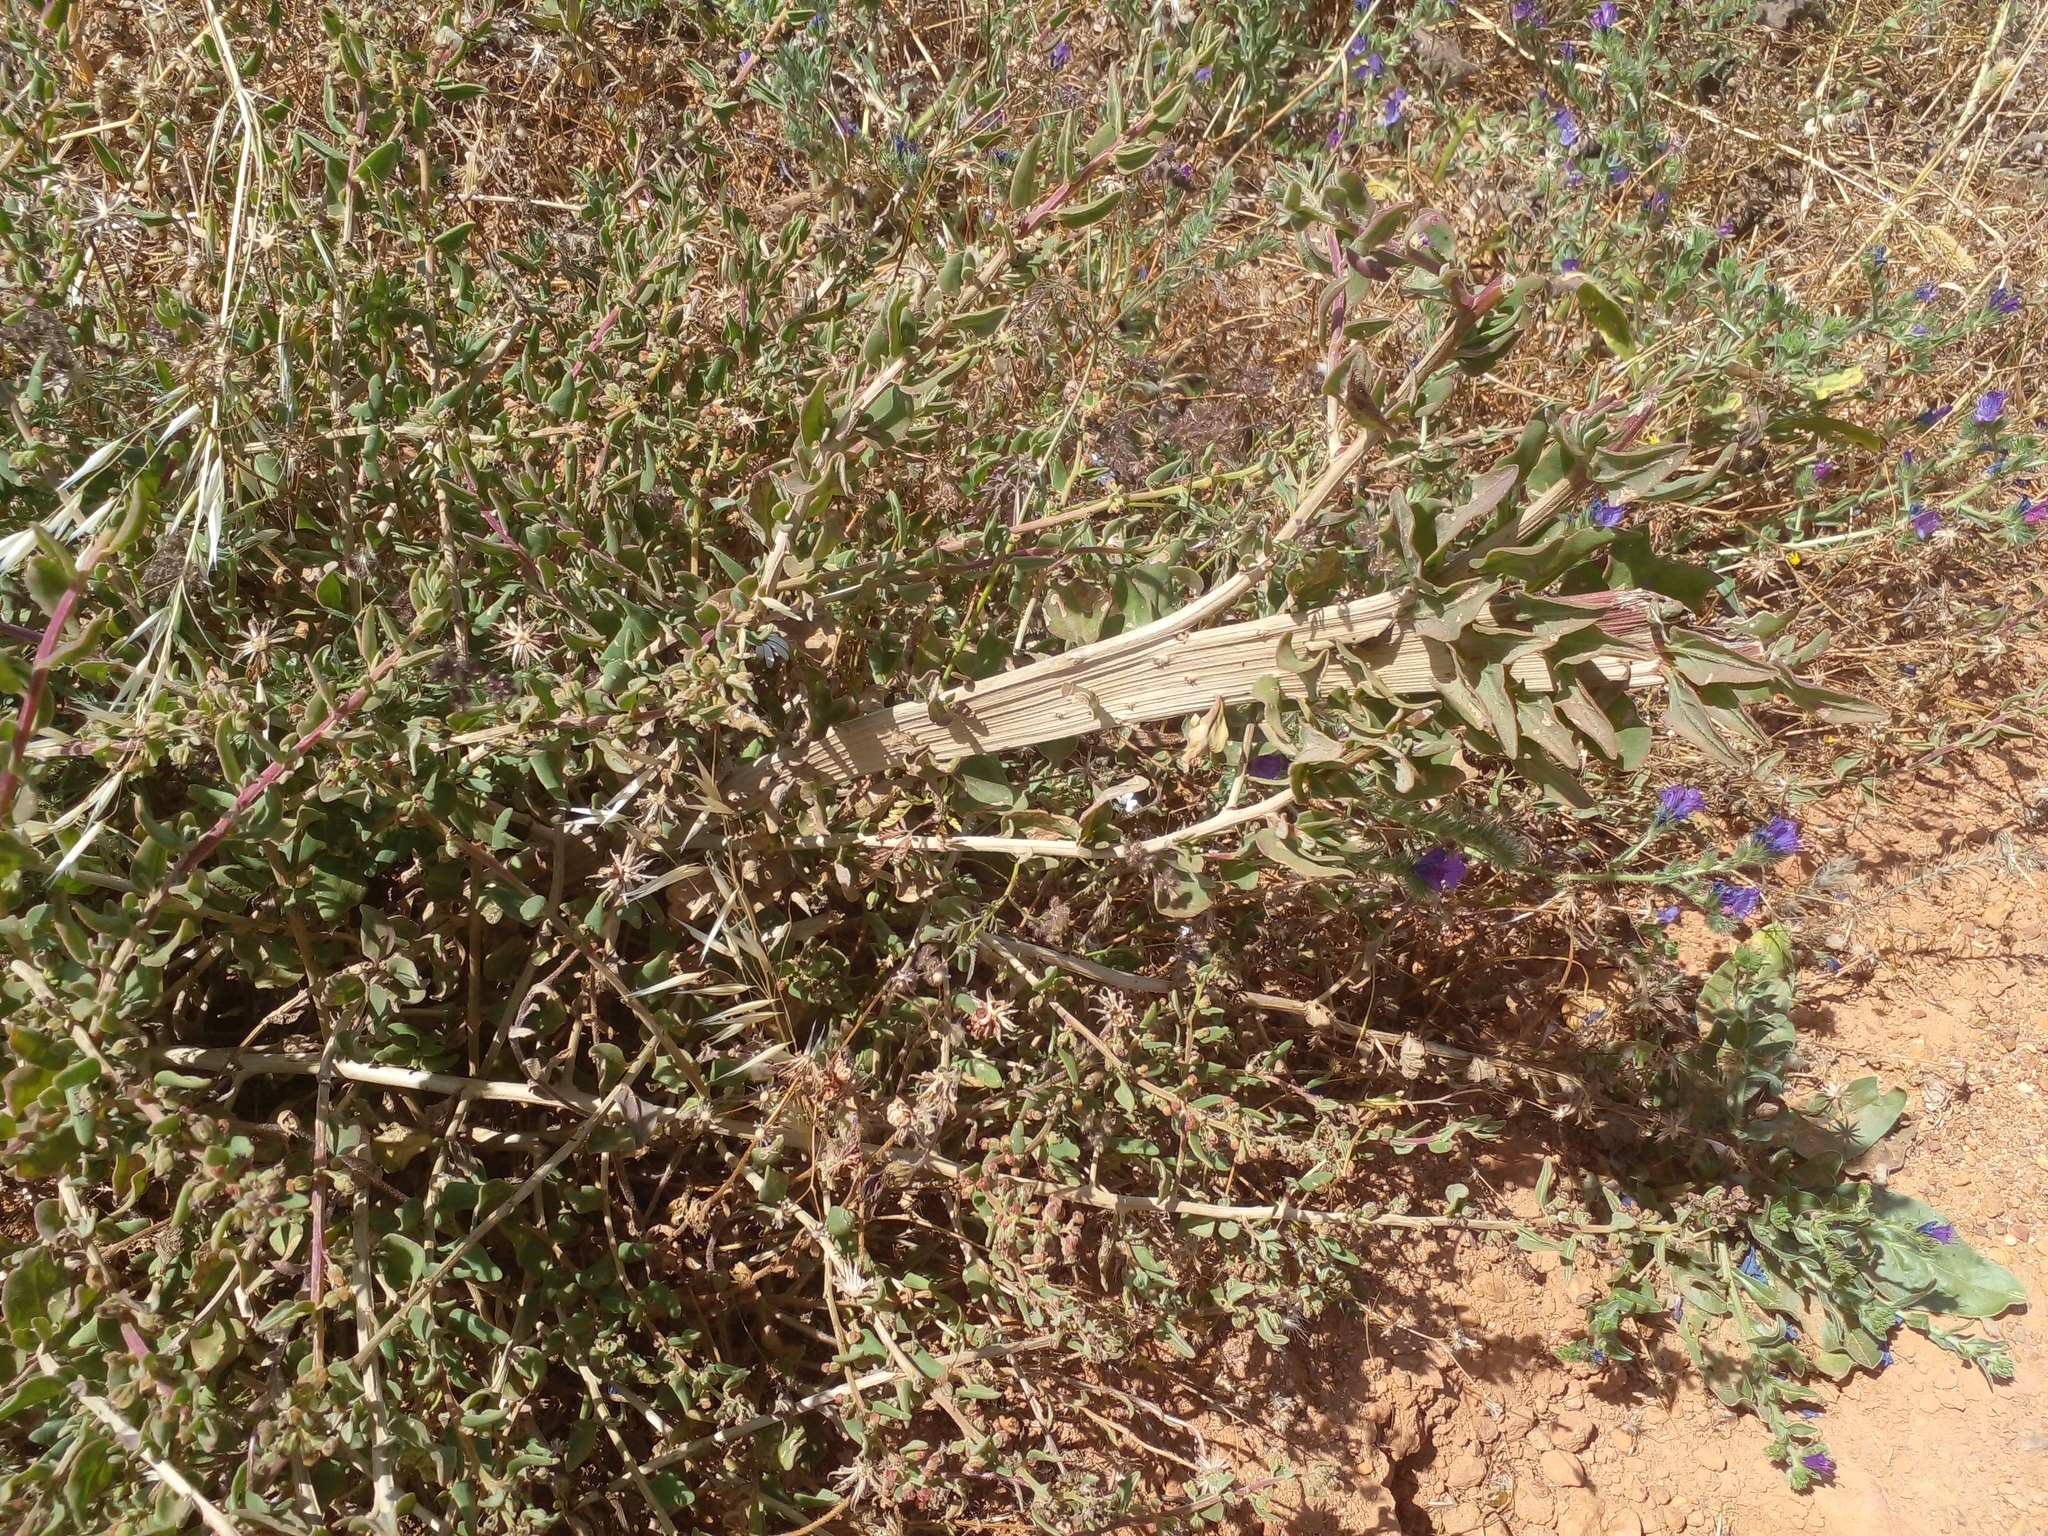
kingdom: Plantae
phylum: Tracheophyta
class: Magnoliopsida
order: Boraginales
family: Boraginaceae
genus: Echium
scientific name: Echium plantagineum
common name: Purple viper's-bugloss
